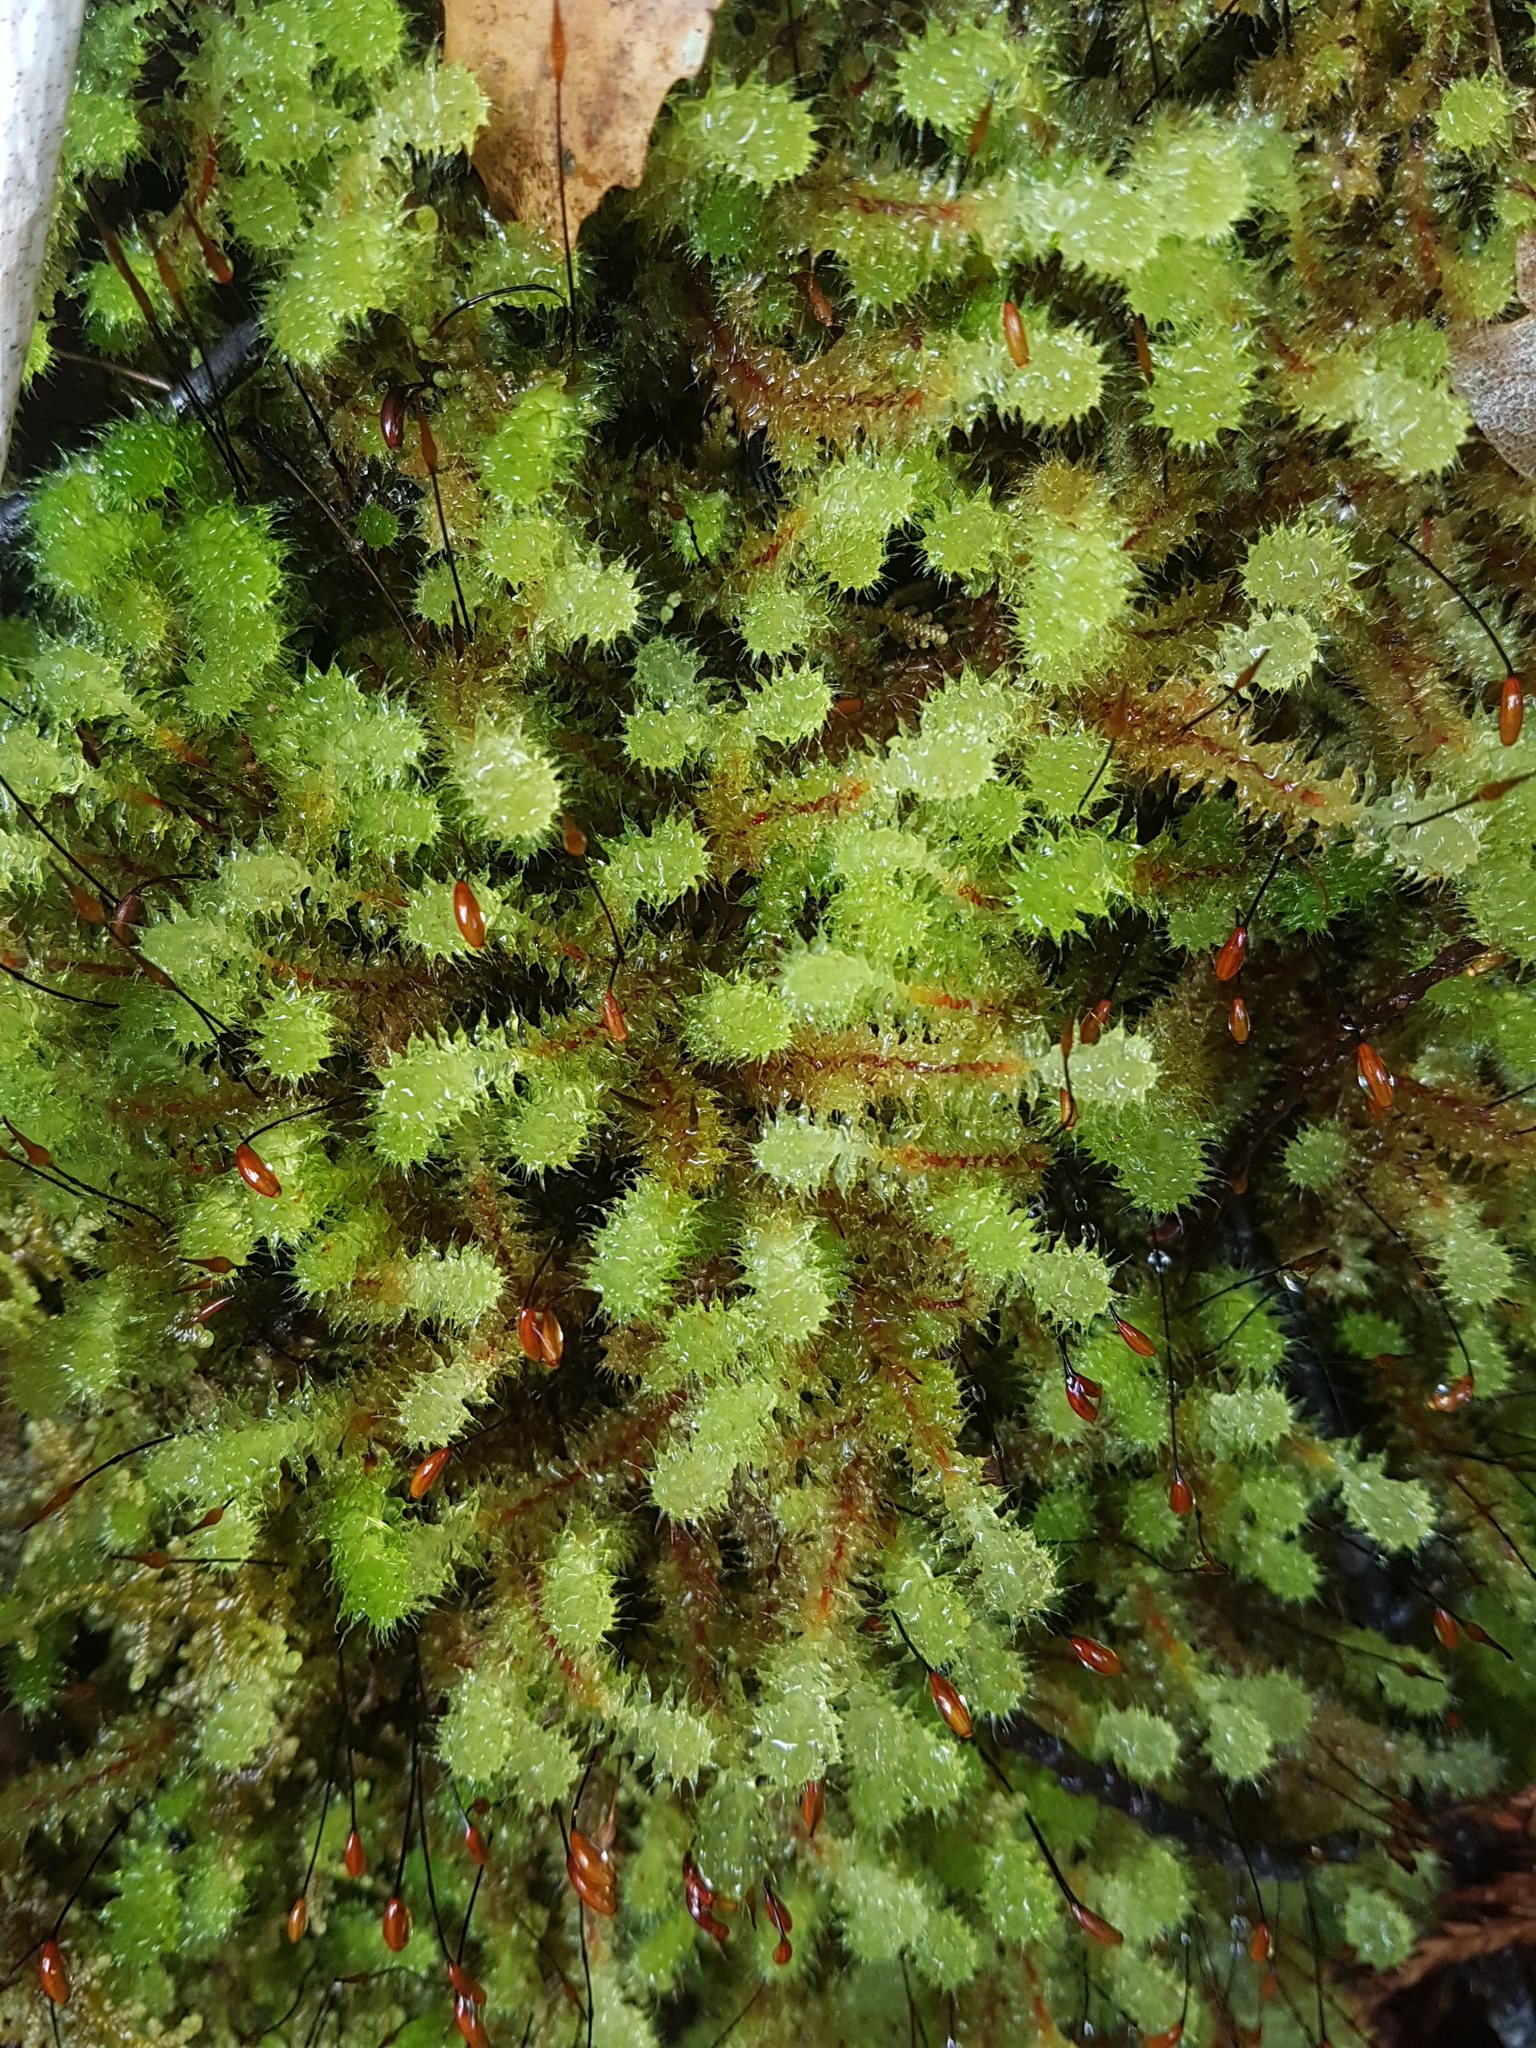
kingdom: Plantae
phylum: Bryophyta
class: Bryopsida
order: Ptychomniales
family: Ptychomniaceae
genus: Ptychomnion
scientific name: Ptychomnion aciculare
